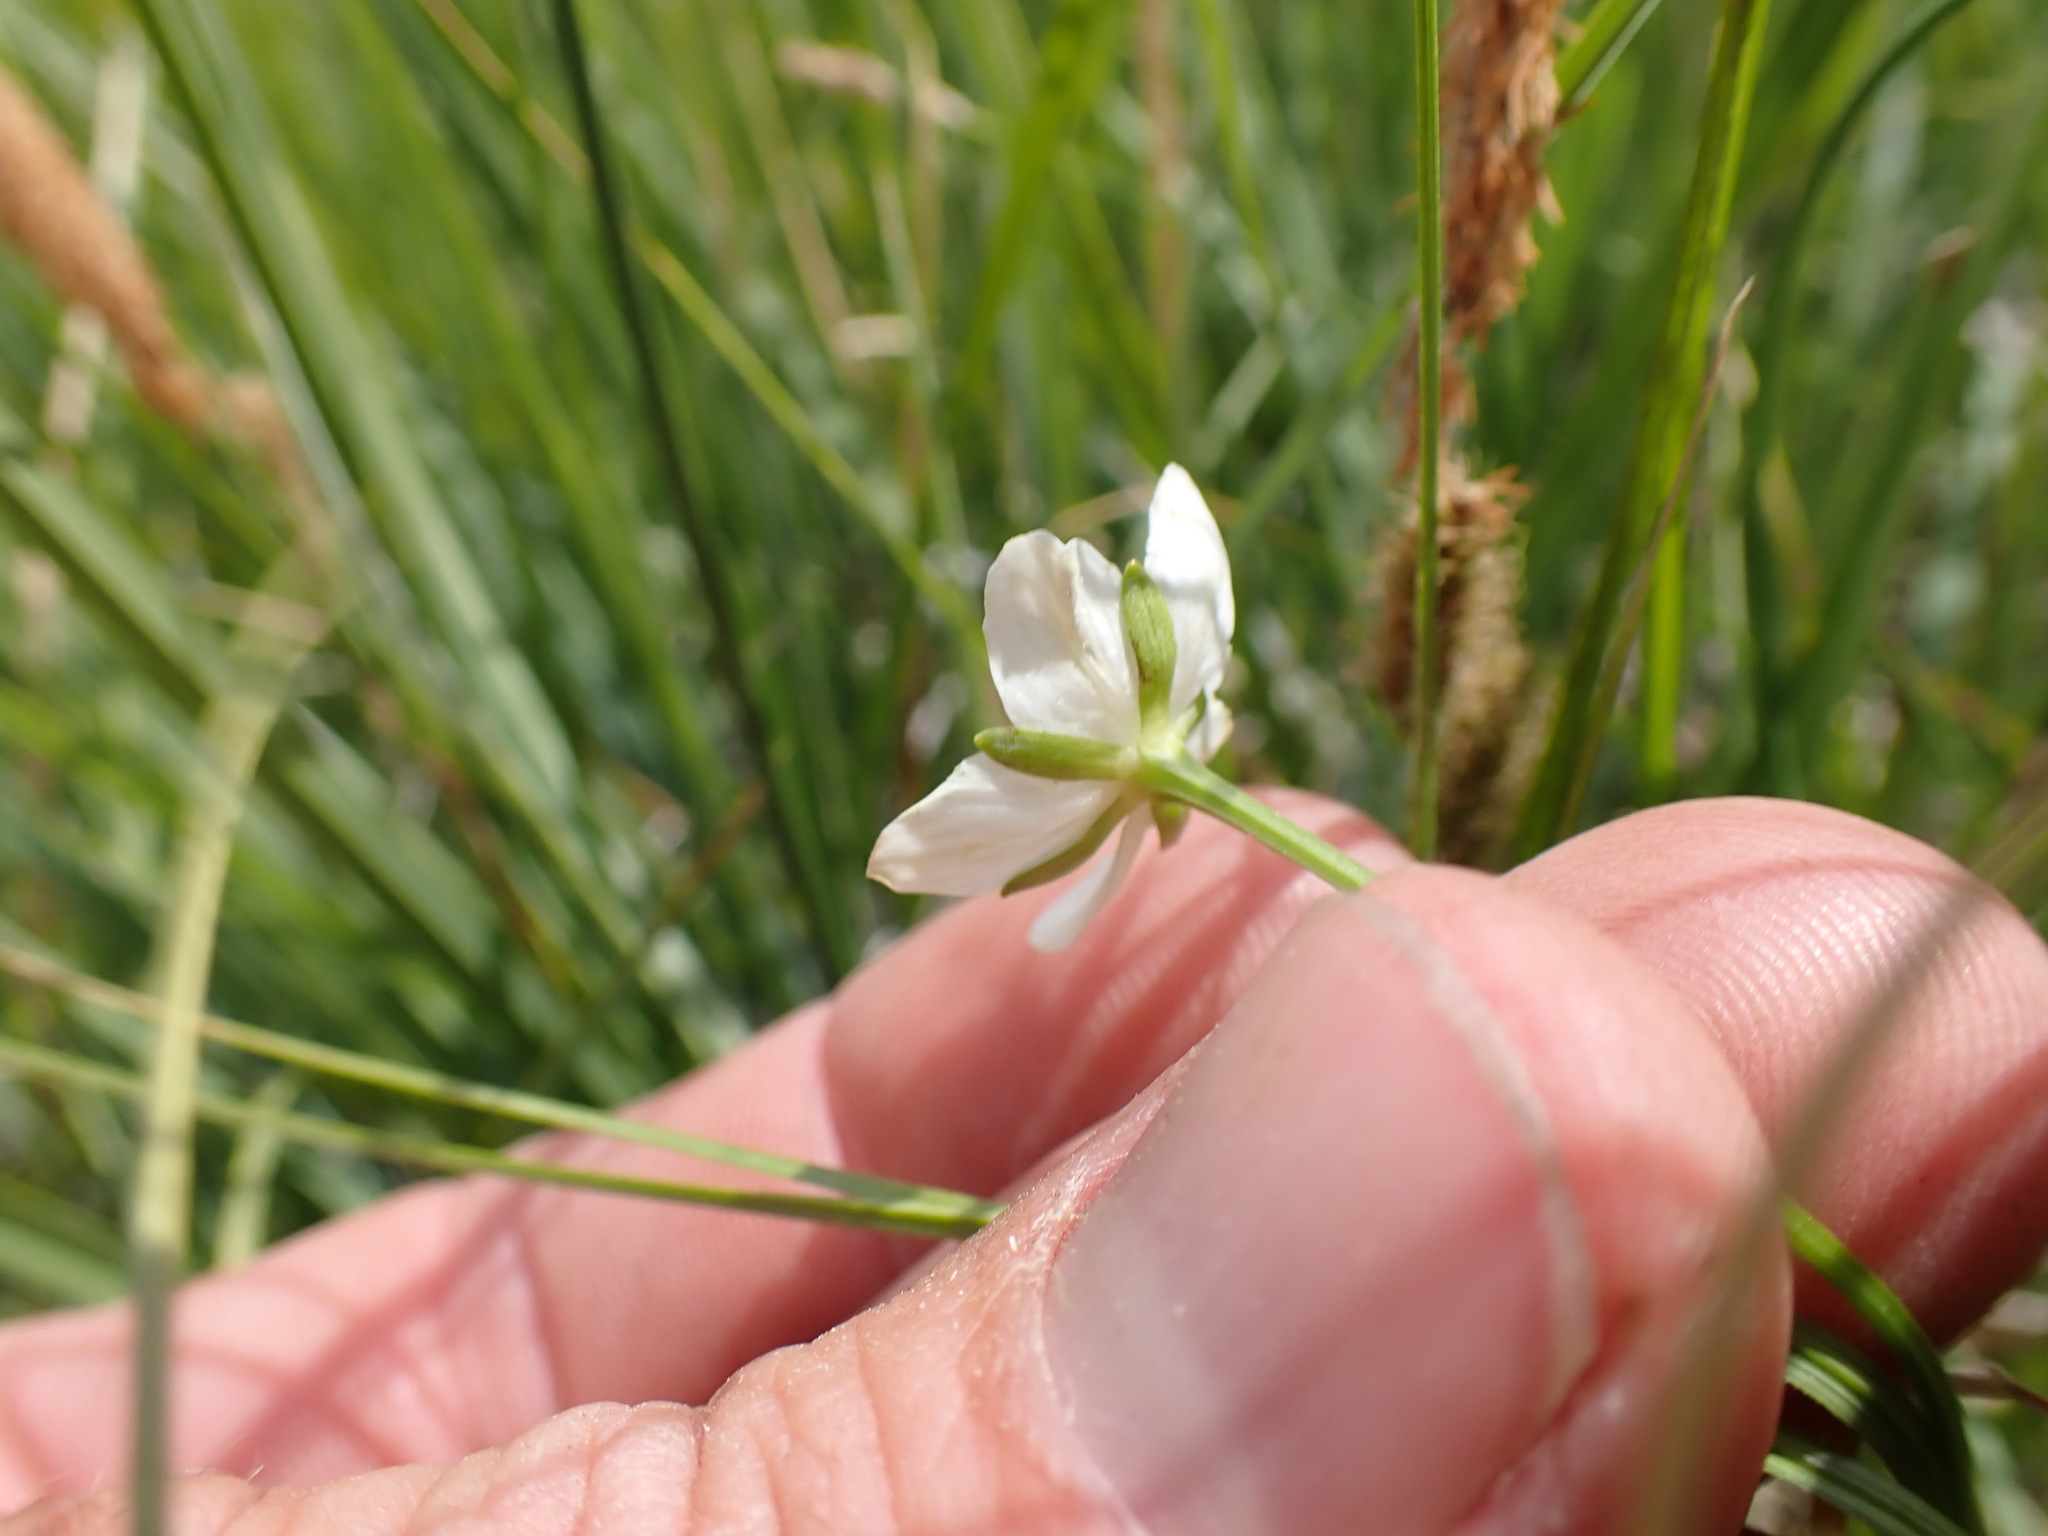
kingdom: Plantae
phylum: Tracheophyta
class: Magnoliopsida
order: Celastrales
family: Parnassiaceae
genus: Parnassia
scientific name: Parnassia parviflora
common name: Small-flowered grass-of-parnassus
